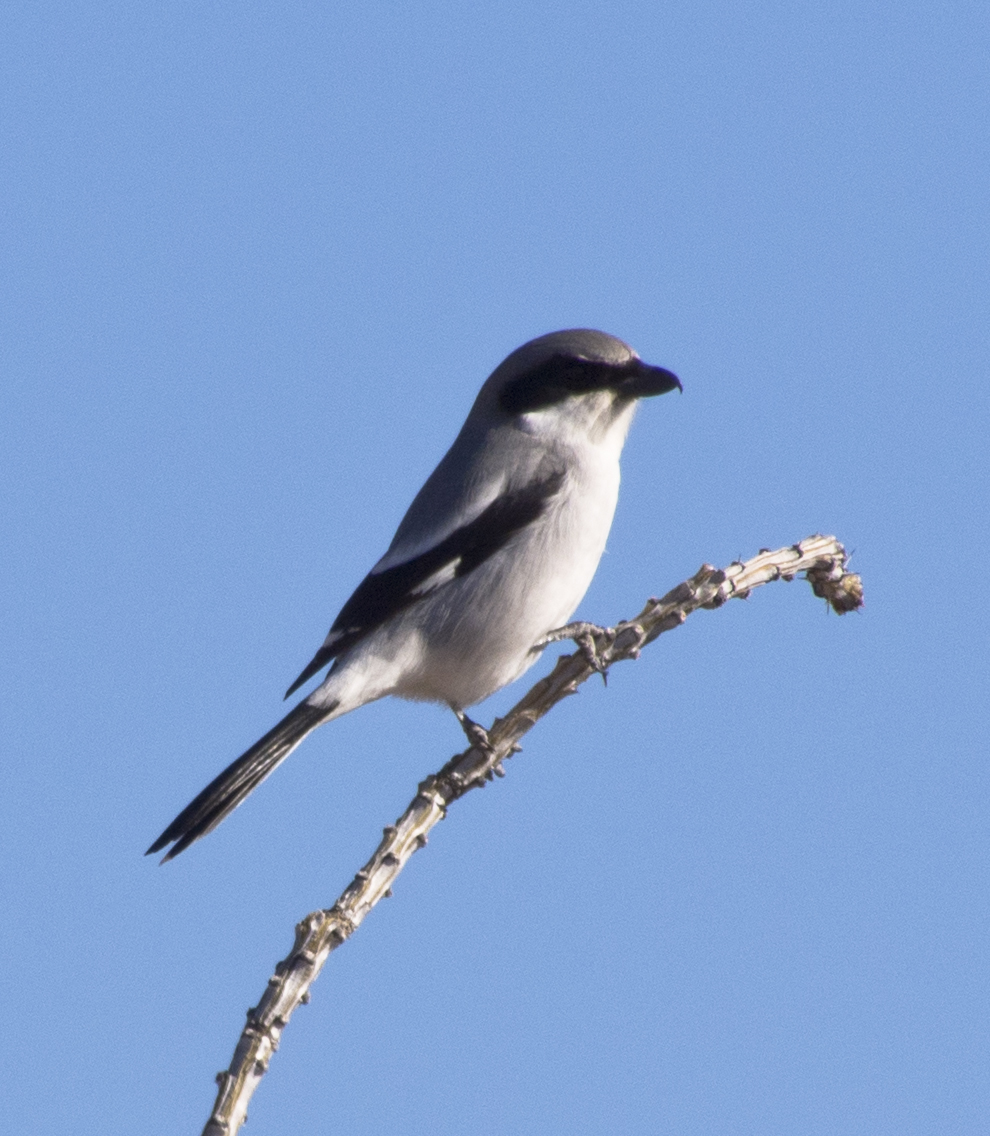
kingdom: Animalia
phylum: Chordata
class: Aves
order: Passeriformes
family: Laniidae
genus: Lanius
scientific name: Lanius ludovicianus
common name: Loggerhead shrike
